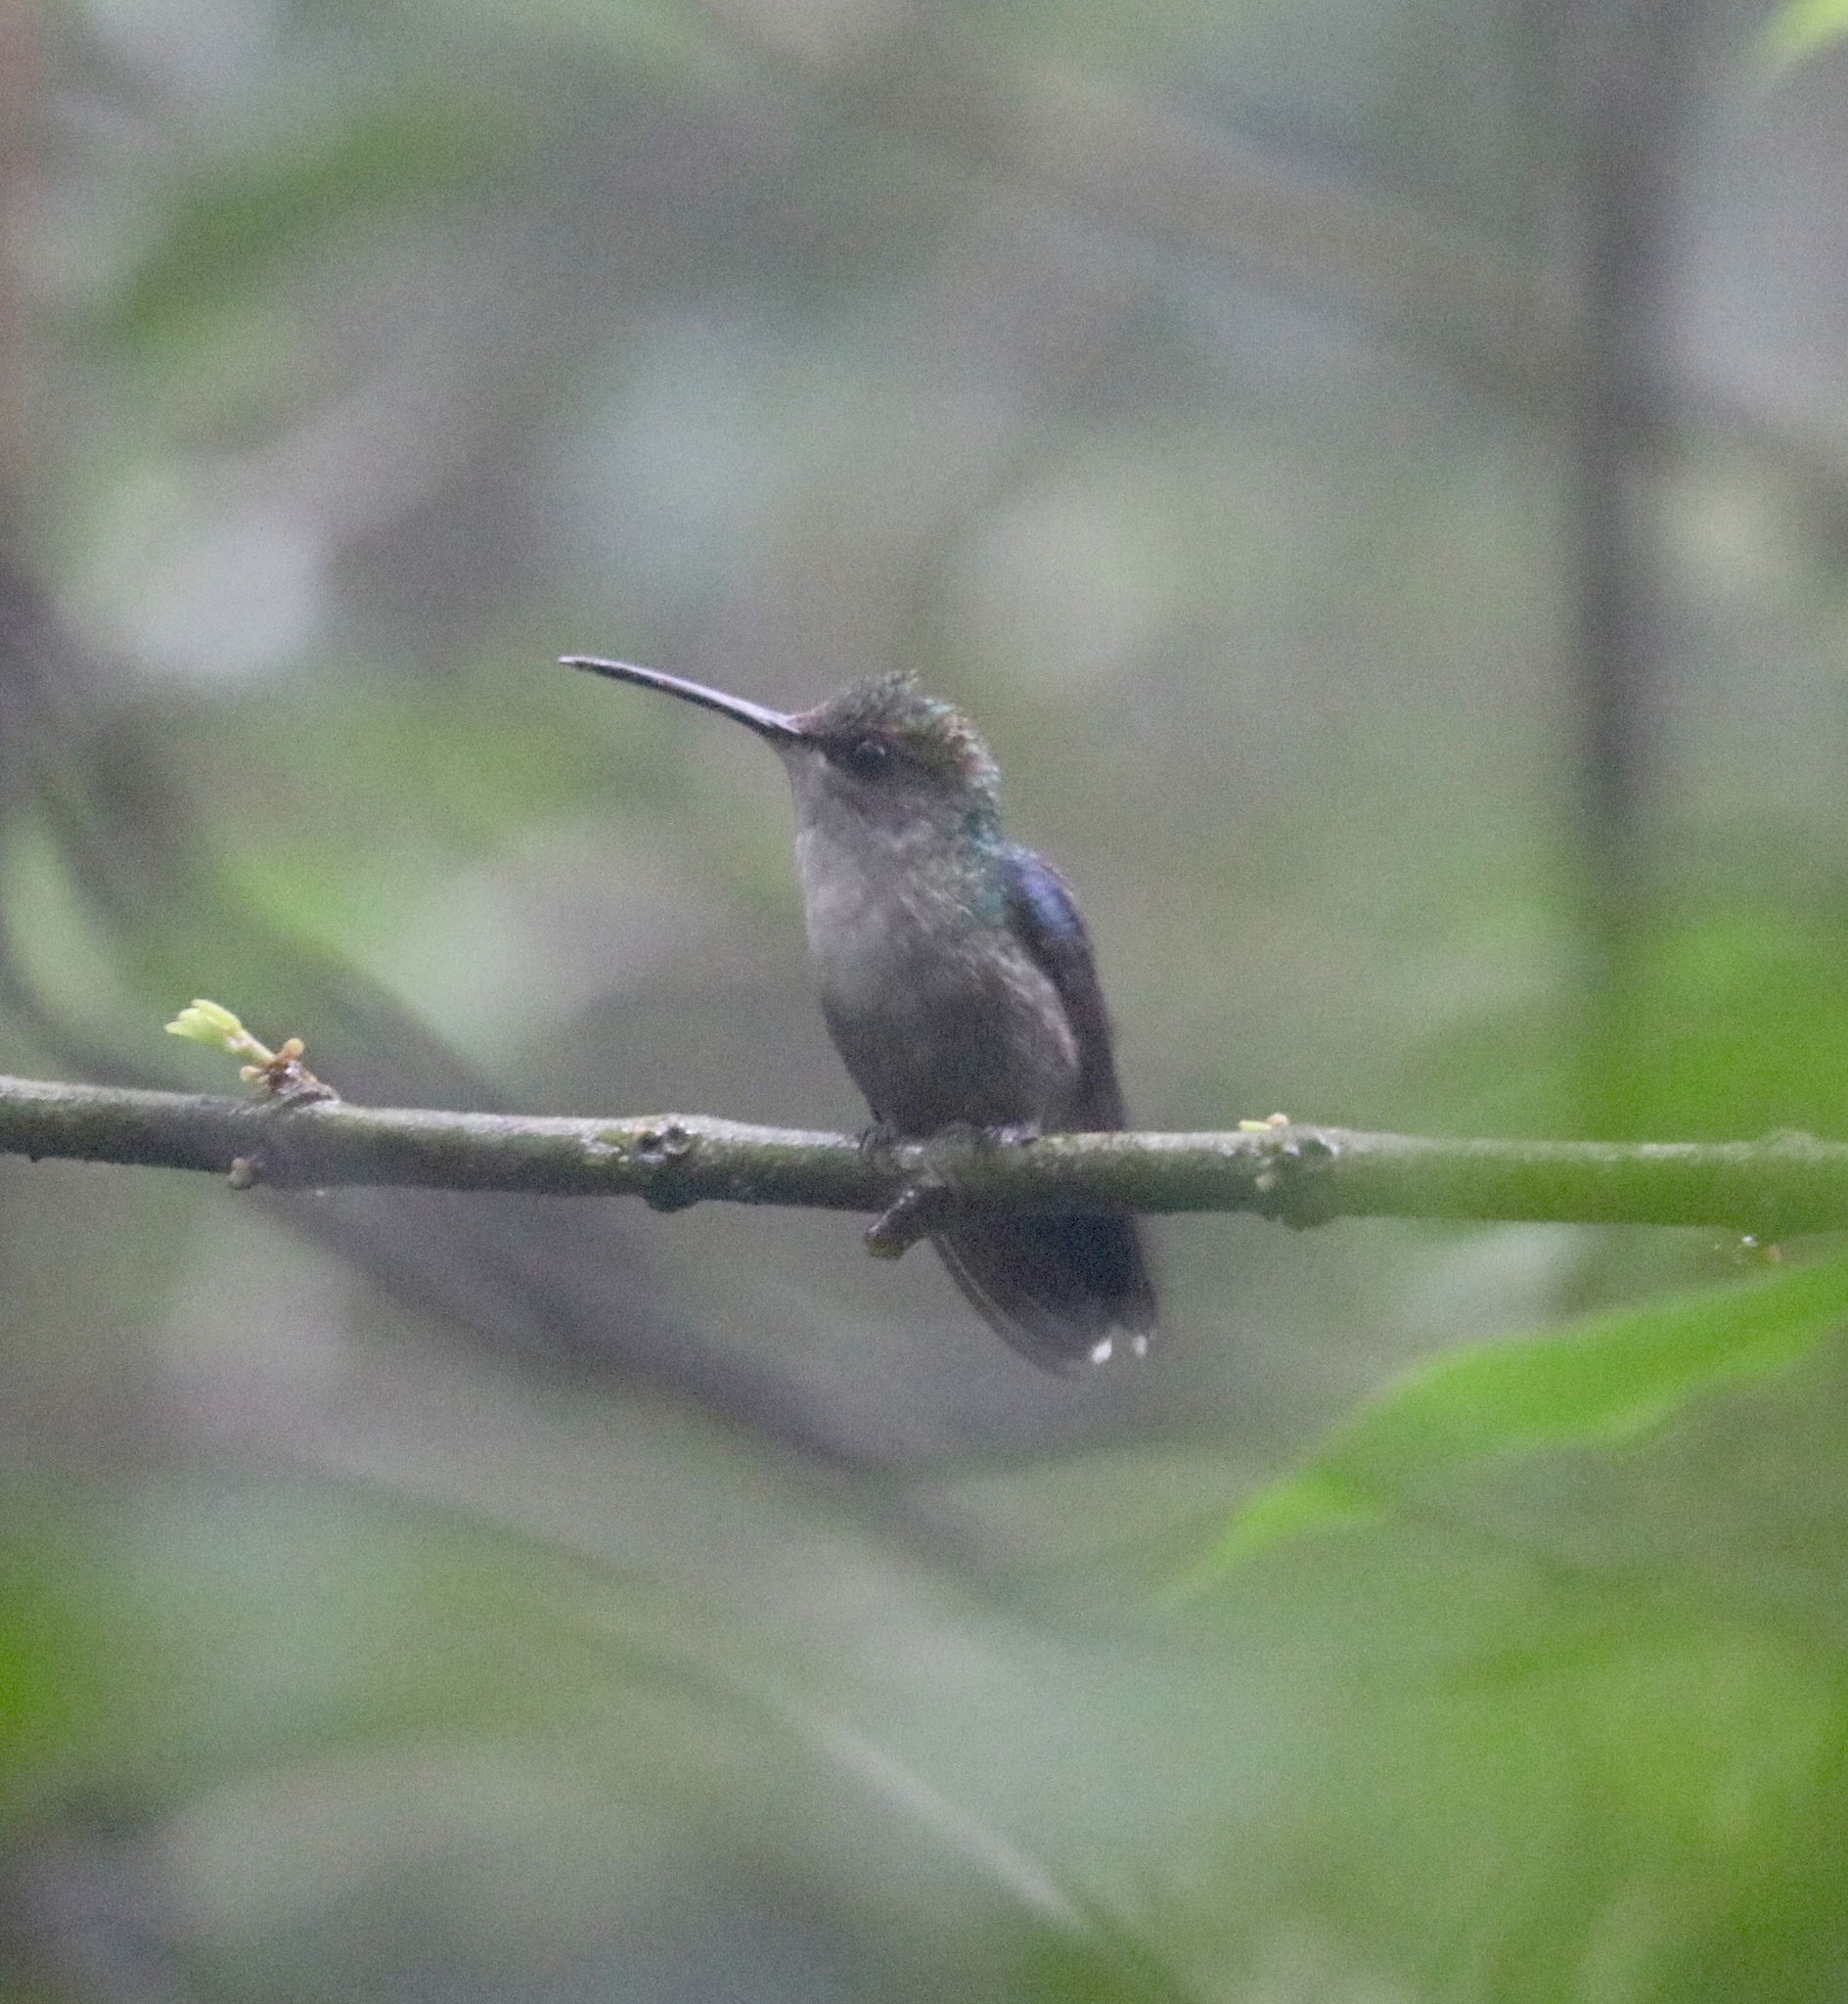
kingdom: Animalia
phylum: Chordata
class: Aves
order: Apodiformes
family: Trochilidae
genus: Thalurania
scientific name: Thalurania colombica
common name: Crowned woodnymph
